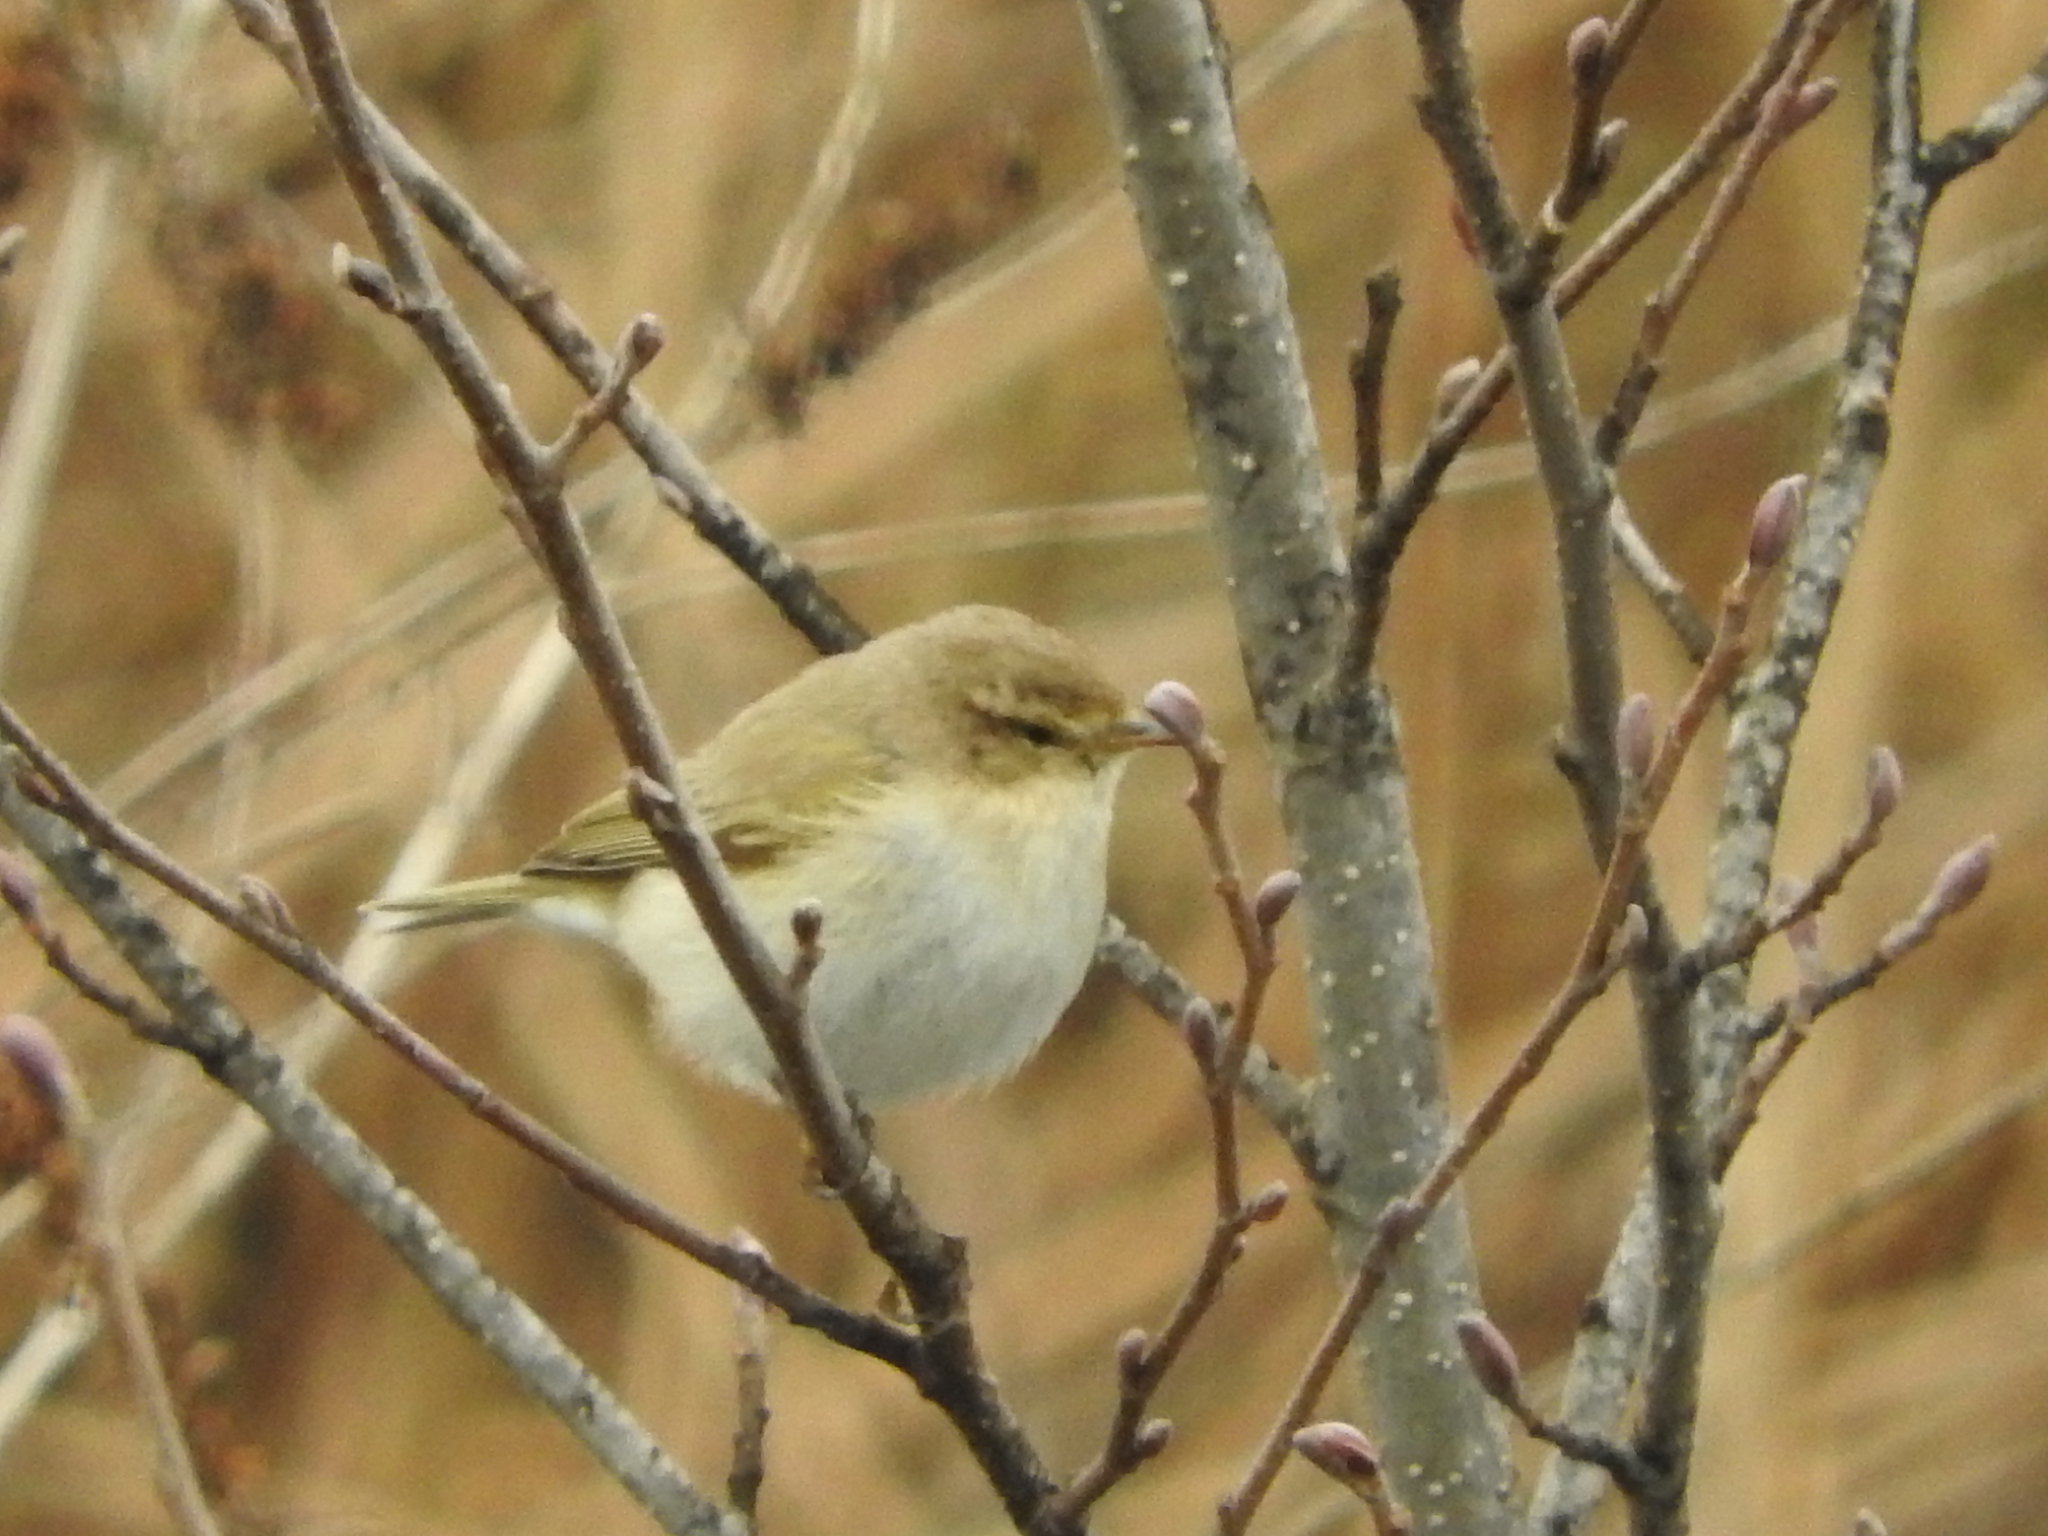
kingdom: Animalia
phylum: Chordata
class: Aves
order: Passeriformes
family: Phylloscopidae
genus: Phylloscopus
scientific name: Phylloscopus collybita
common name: Common chiffchaff
